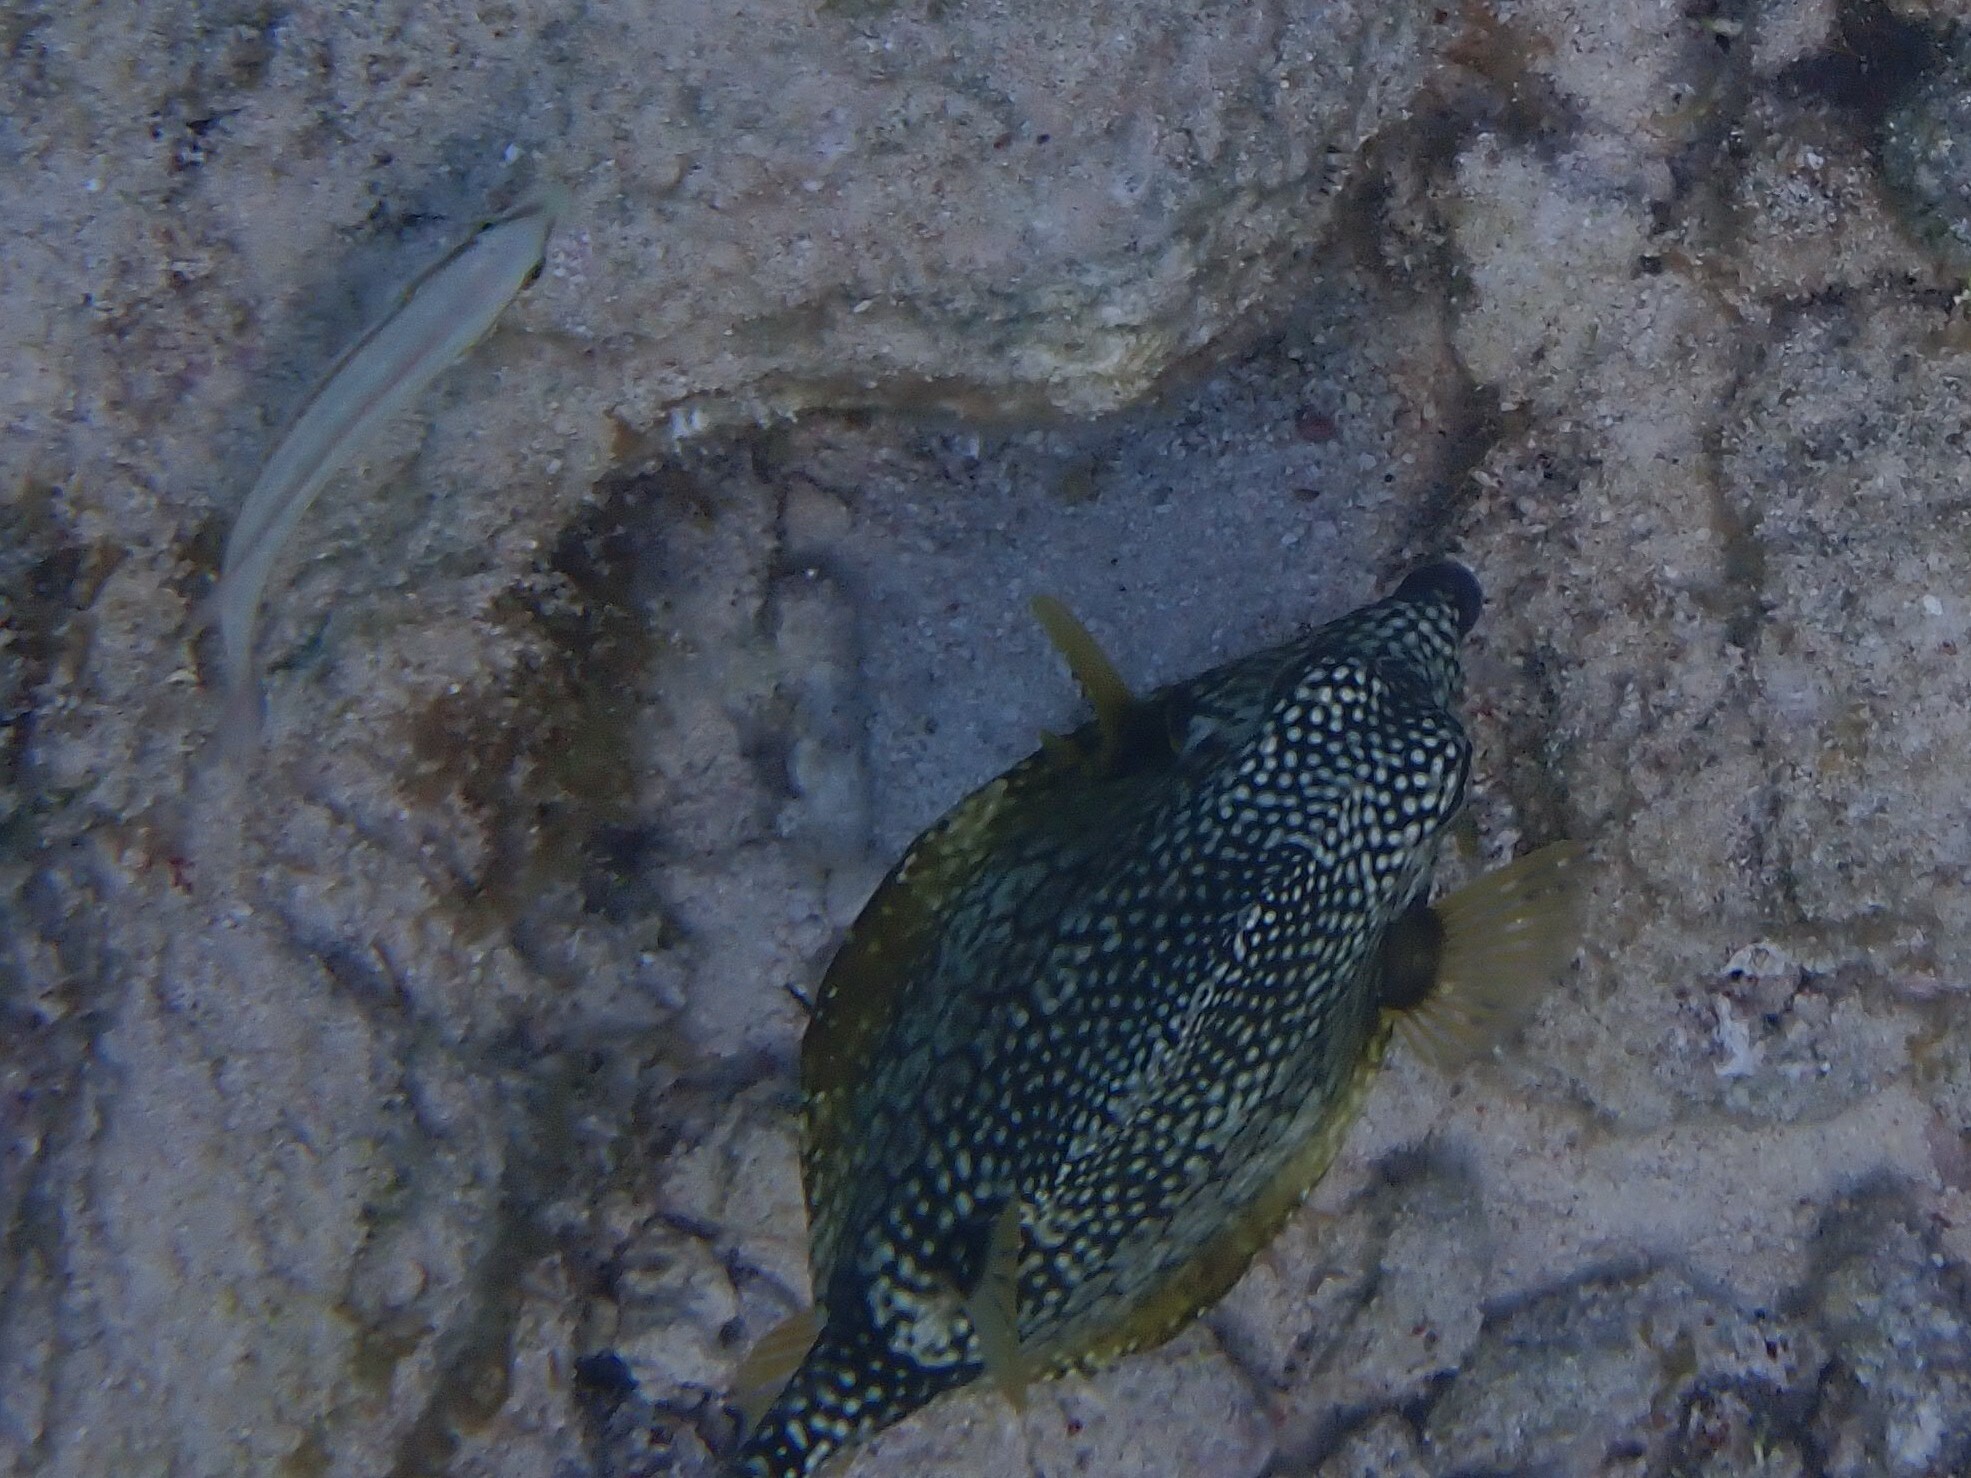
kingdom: Animalia
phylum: Chordata
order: Tetraodontiformes
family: Ostraciidae
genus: Lactophrys
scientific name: Lactophrys triqueter
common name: Smooth trunkfish
